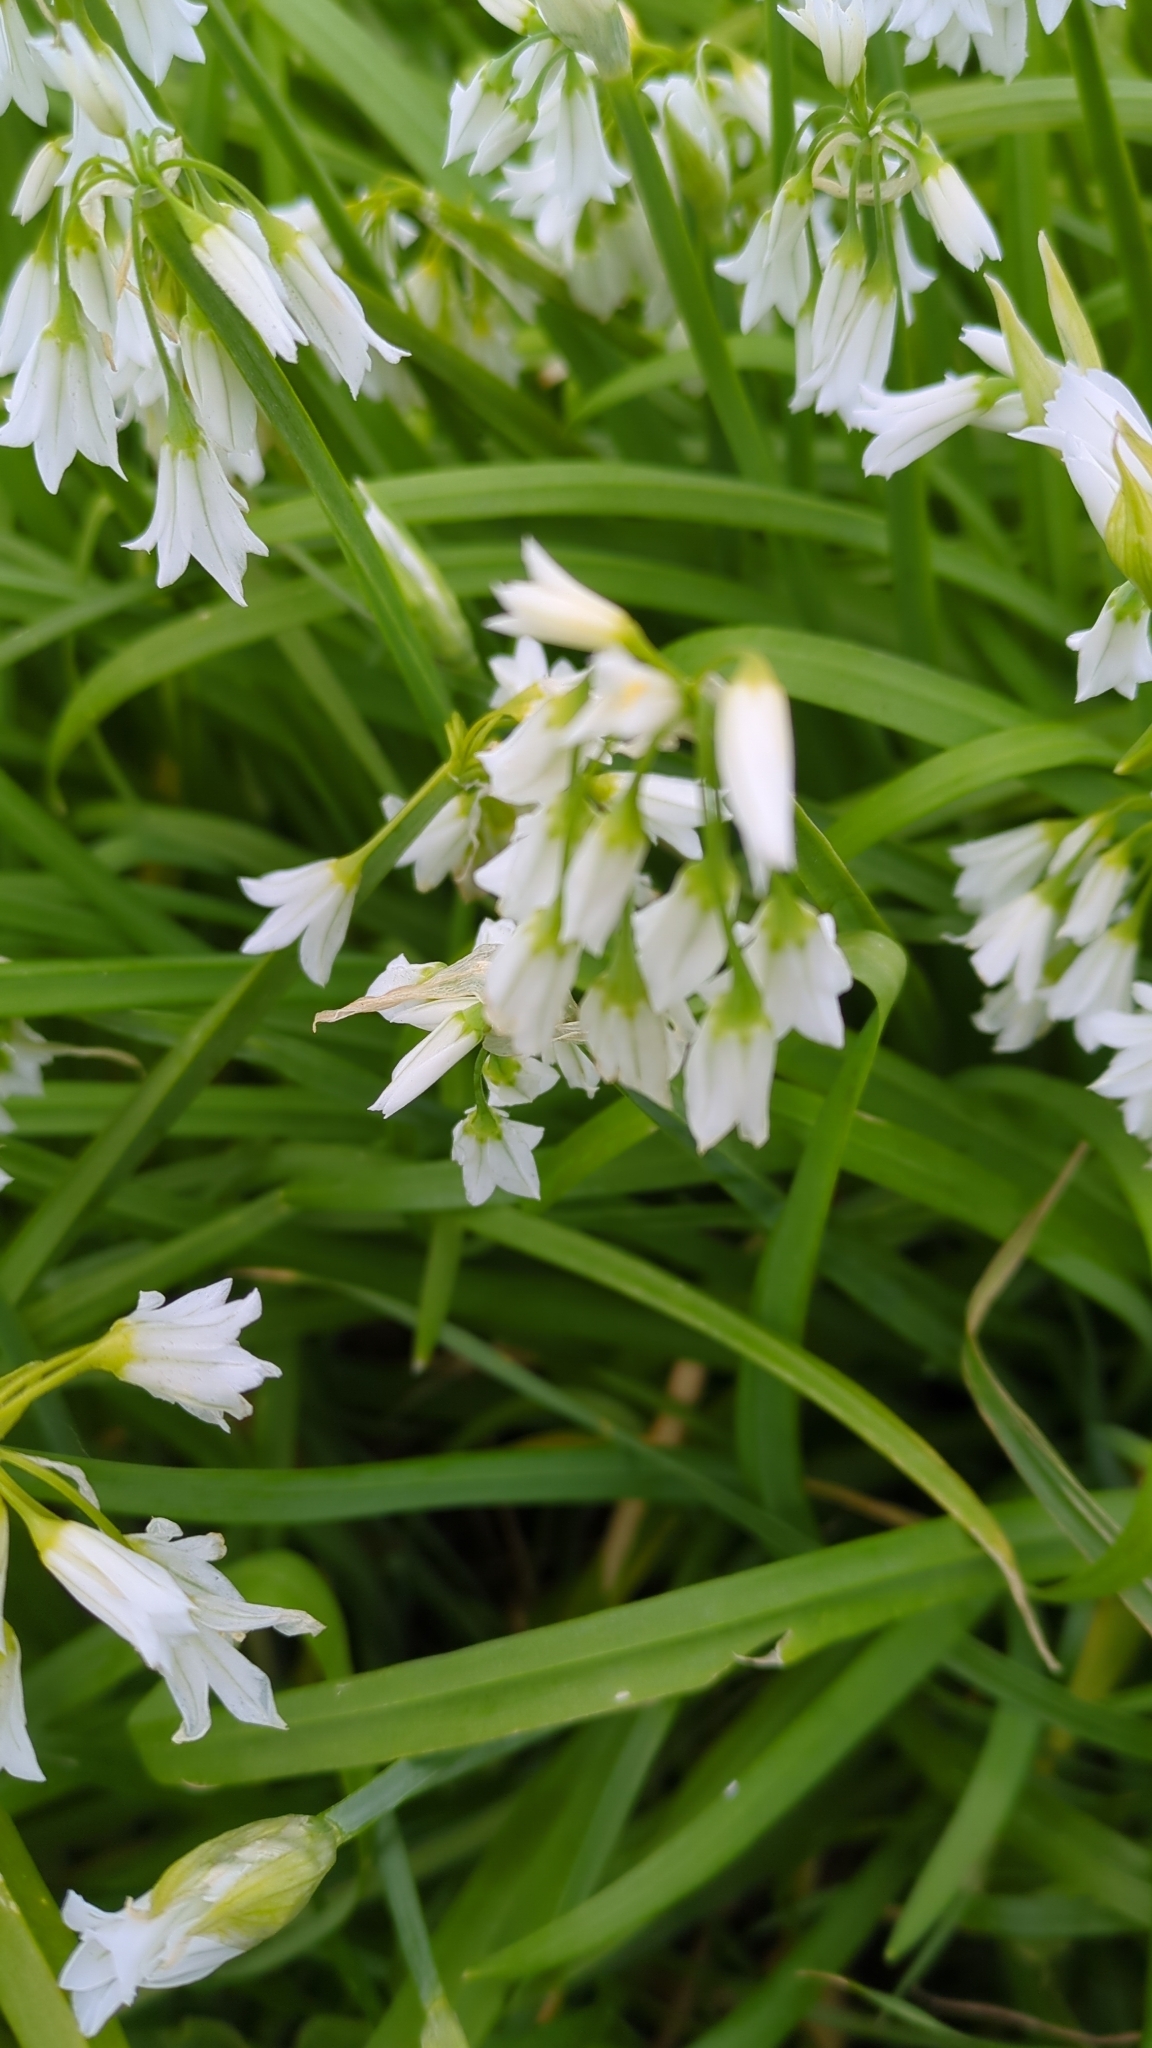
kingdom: Plantae
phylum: Tracheophyta
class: Liliopsida
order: Asparagales
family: Amaryllidaceae
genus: Allium
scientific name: Allium triquetrum
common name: Three-cornered garlic
